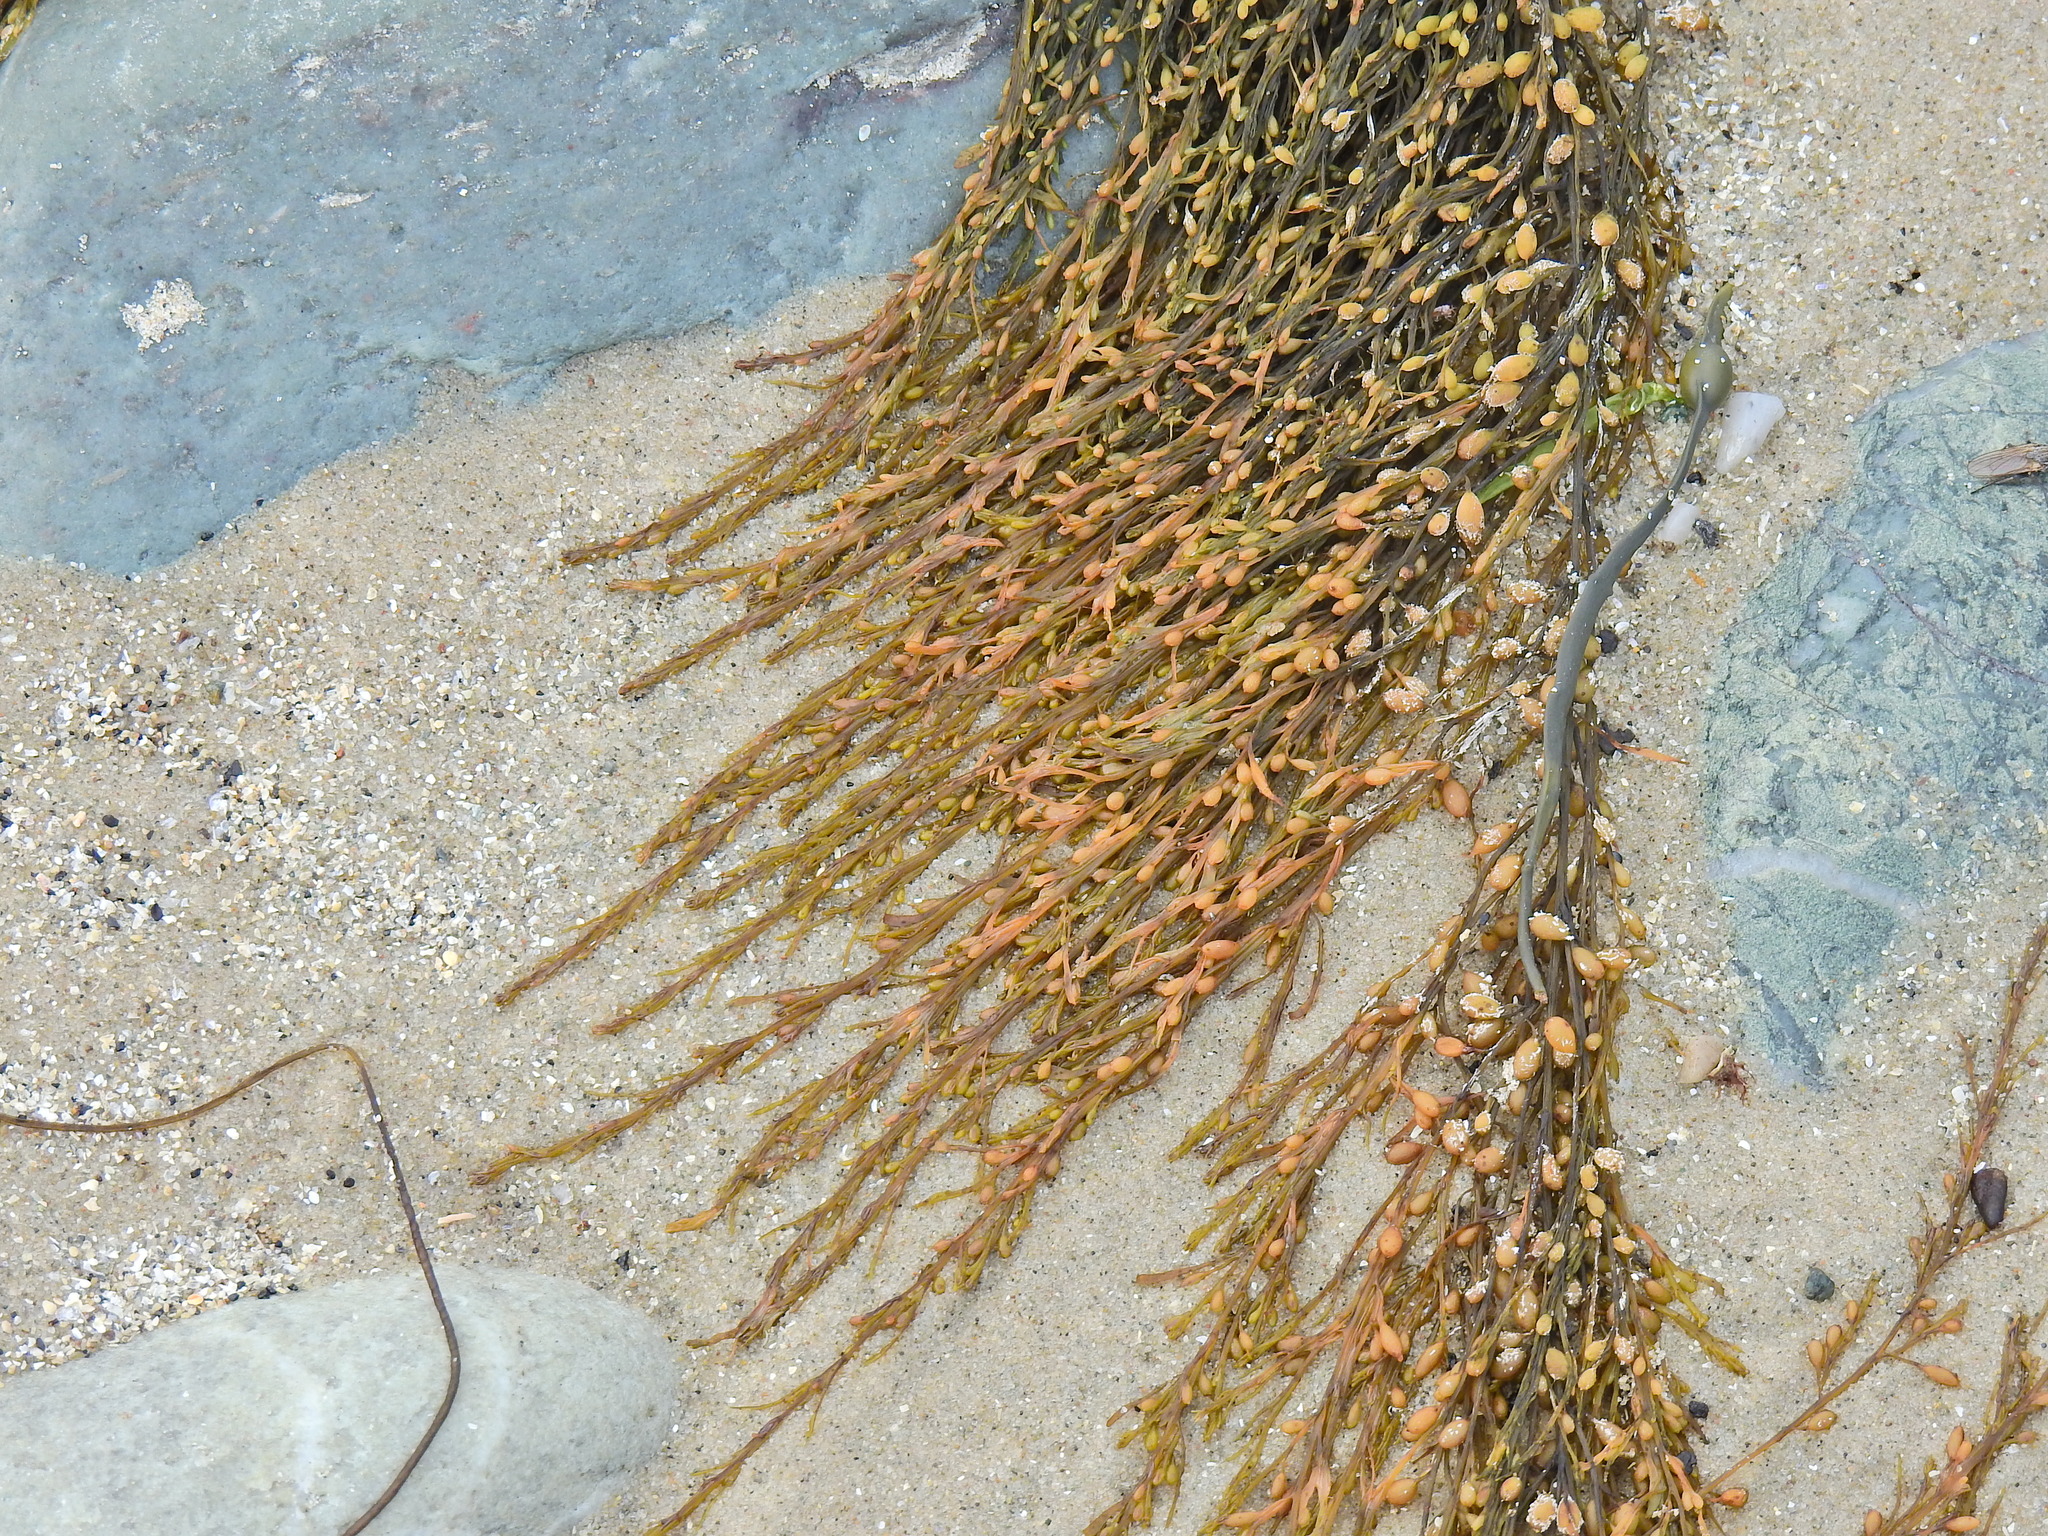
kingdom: Chromista
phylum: Ochrophyta
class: Phaeophyceae
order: Fucales
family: Sargassaceae
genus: Sargassum
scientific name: Sargassum muticum
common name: Japweed
